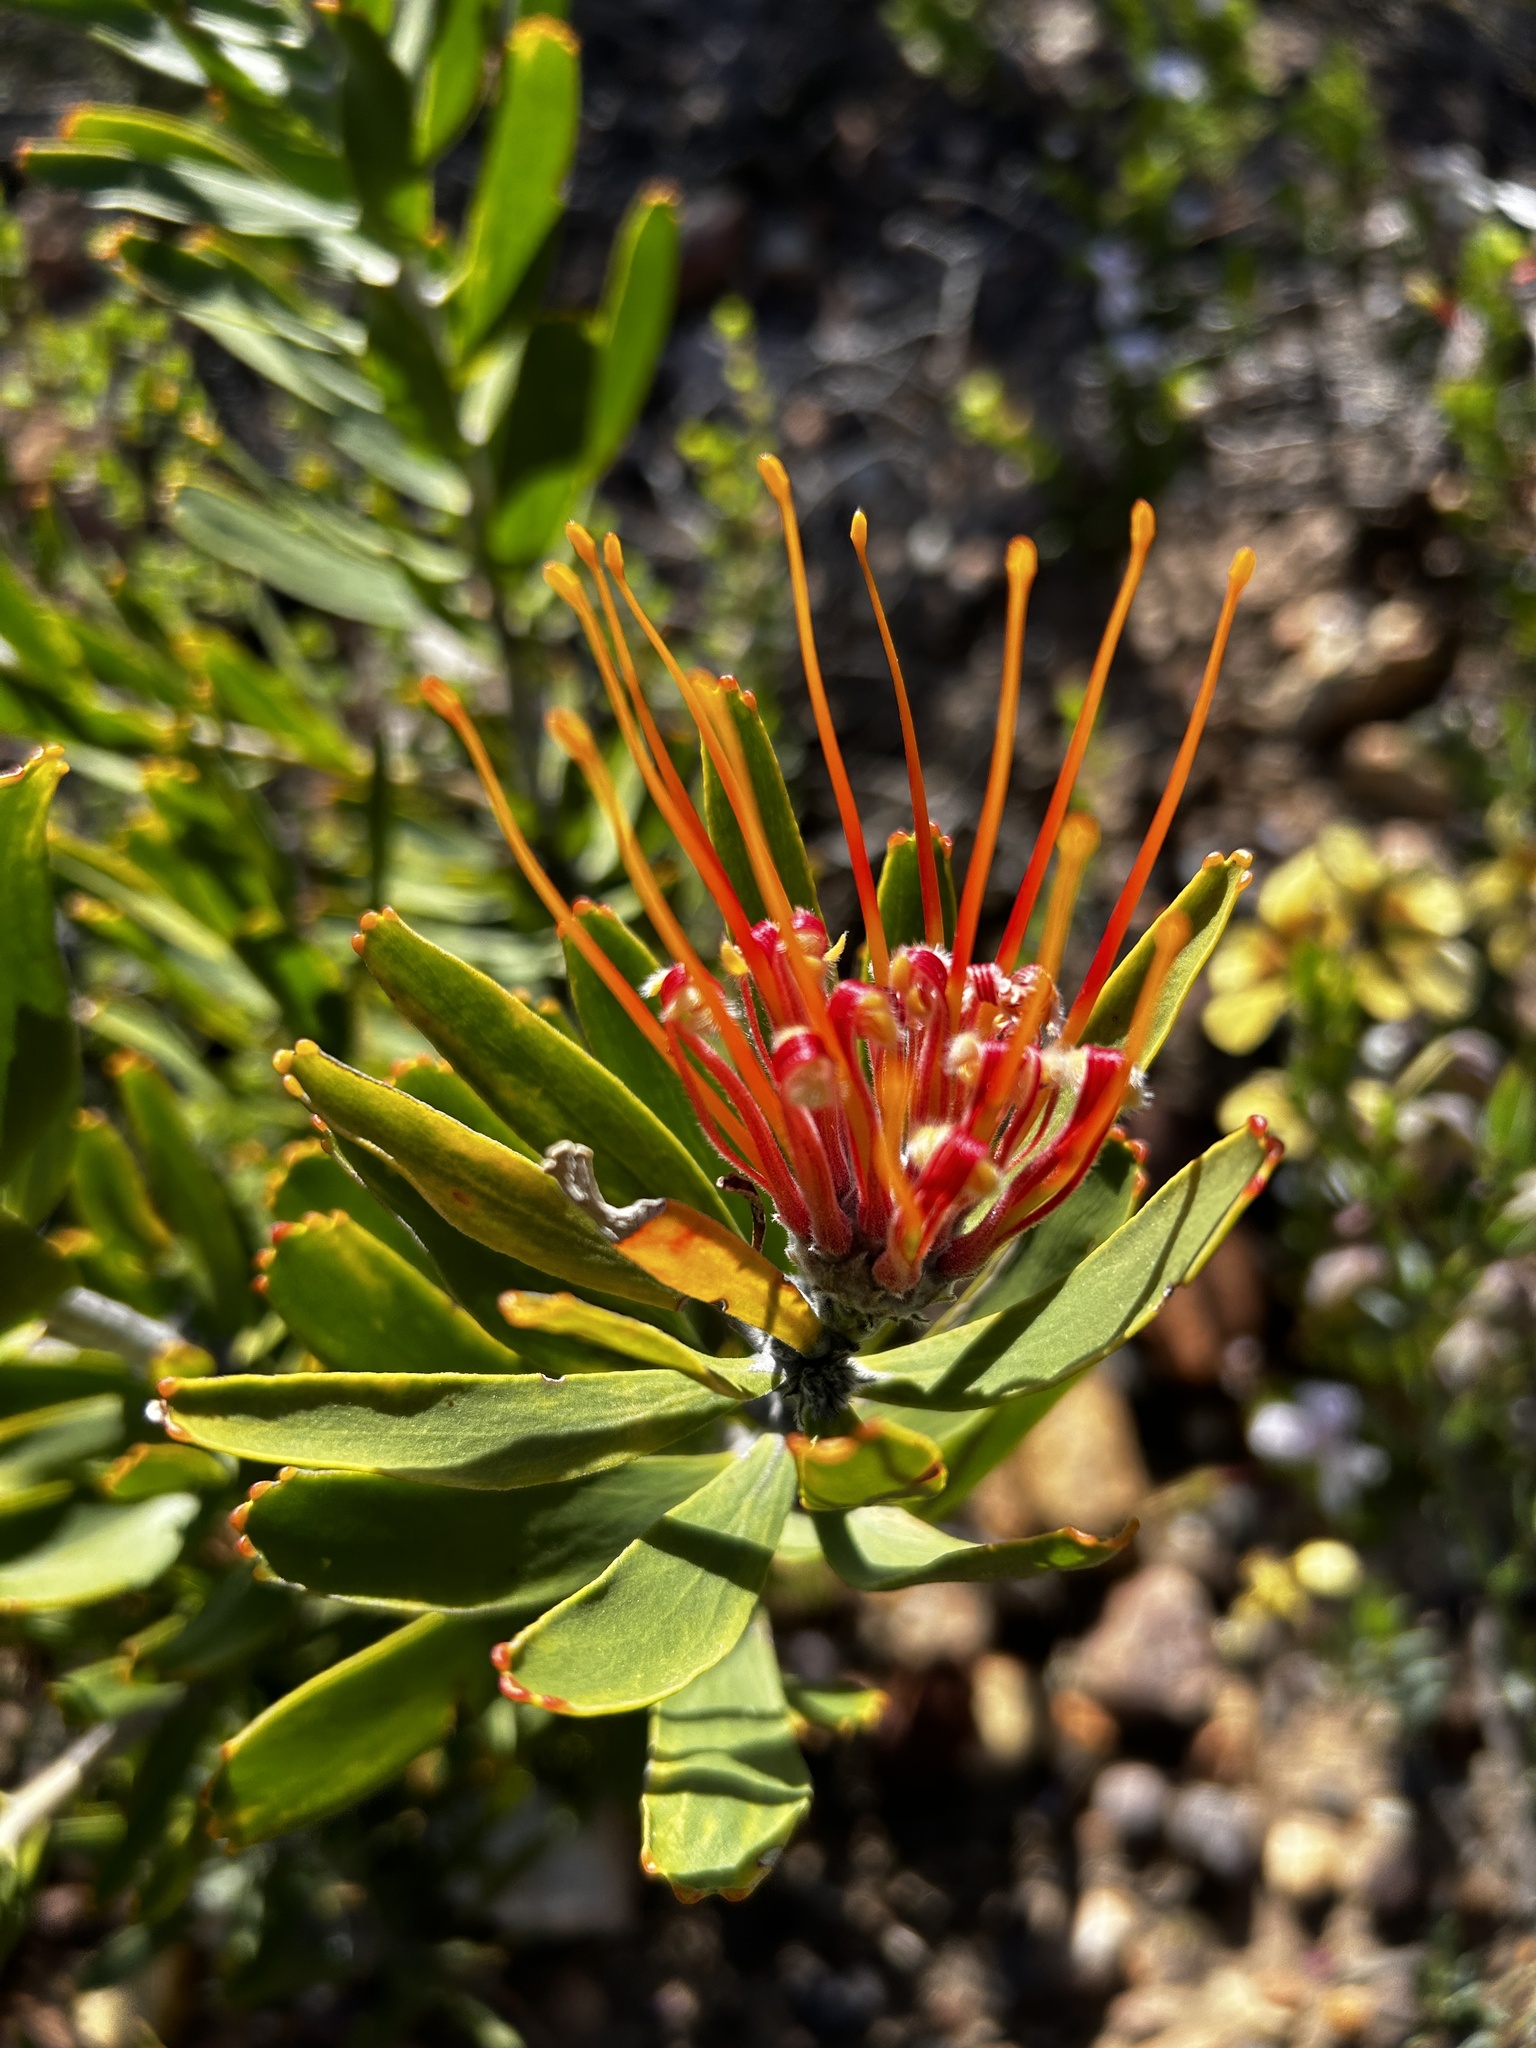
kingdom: Plantae
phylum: Tracheophyta
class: Magnoliopsida
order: Proteales
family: Proteaceae
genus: Leucospermum
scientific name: Leucospermum cuneiforme
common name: Common pincushion
